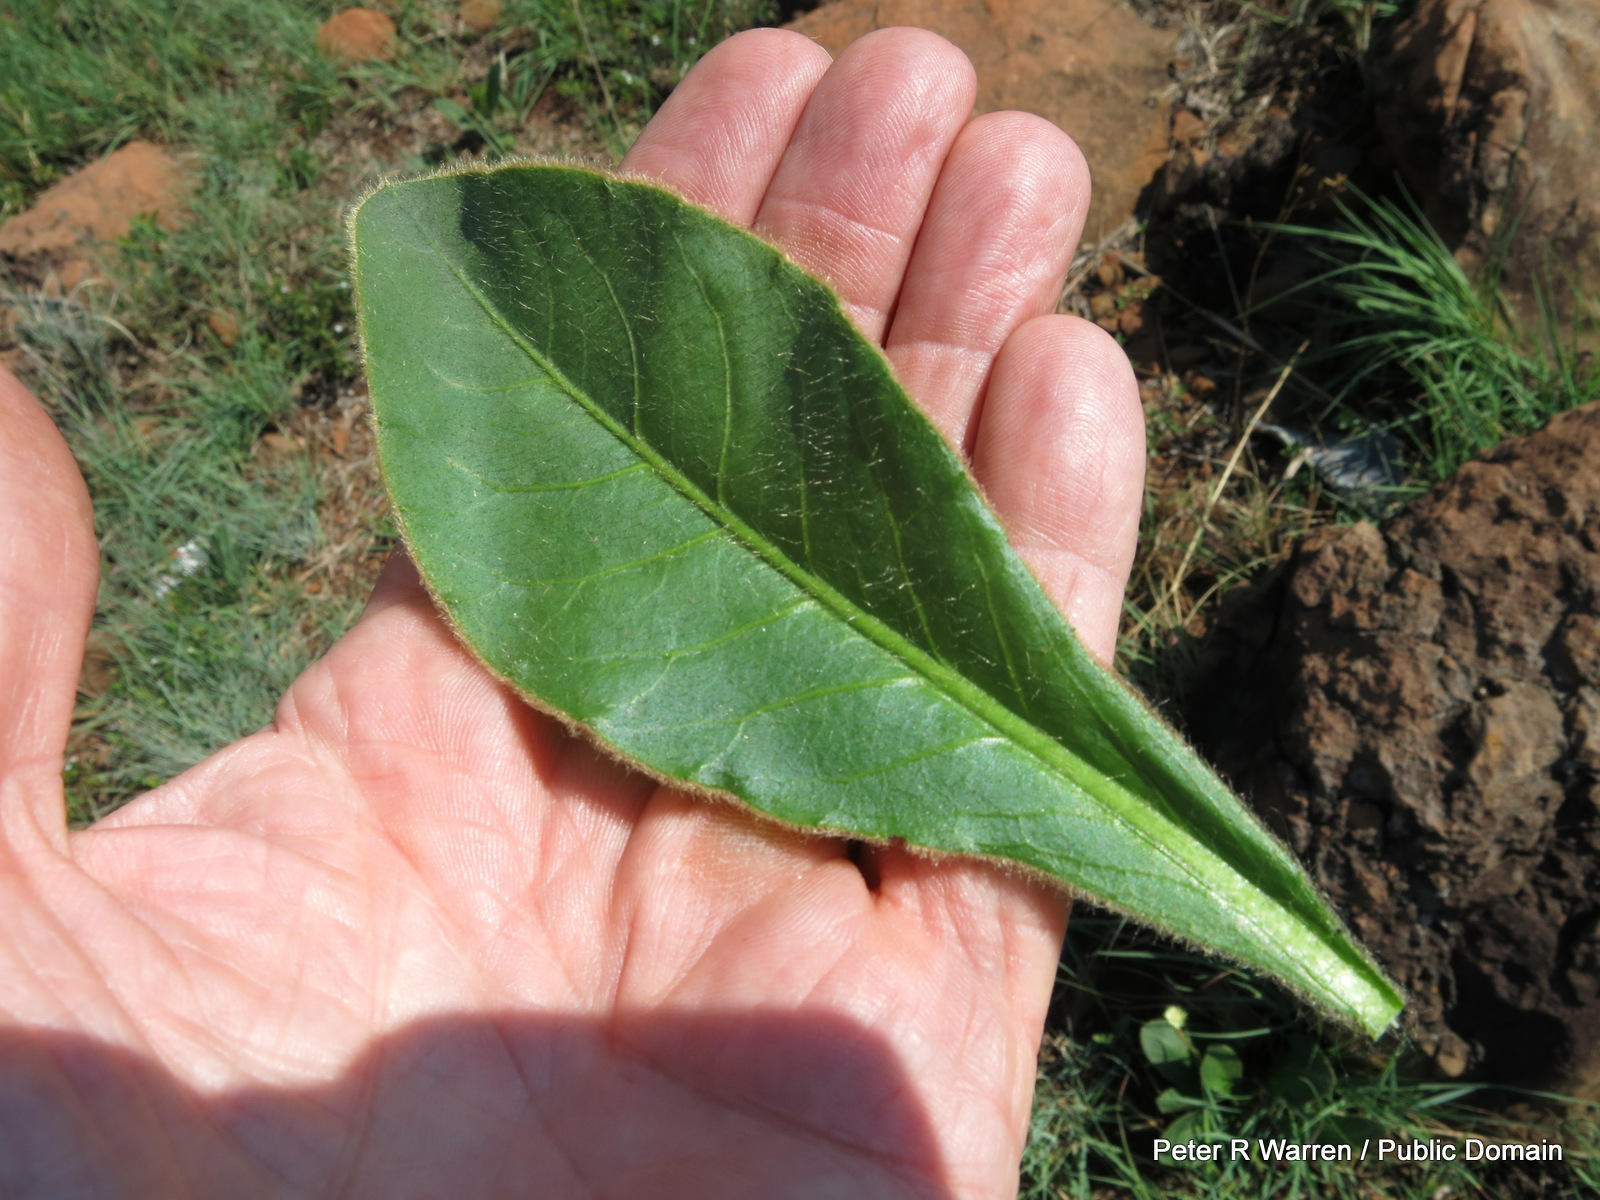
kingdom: Plantae
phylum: Tracheophyta
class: Magnoliopsida
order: Asterales
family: Asteraceae
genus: Piloselloides
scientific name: Piloselloides hirsuta
